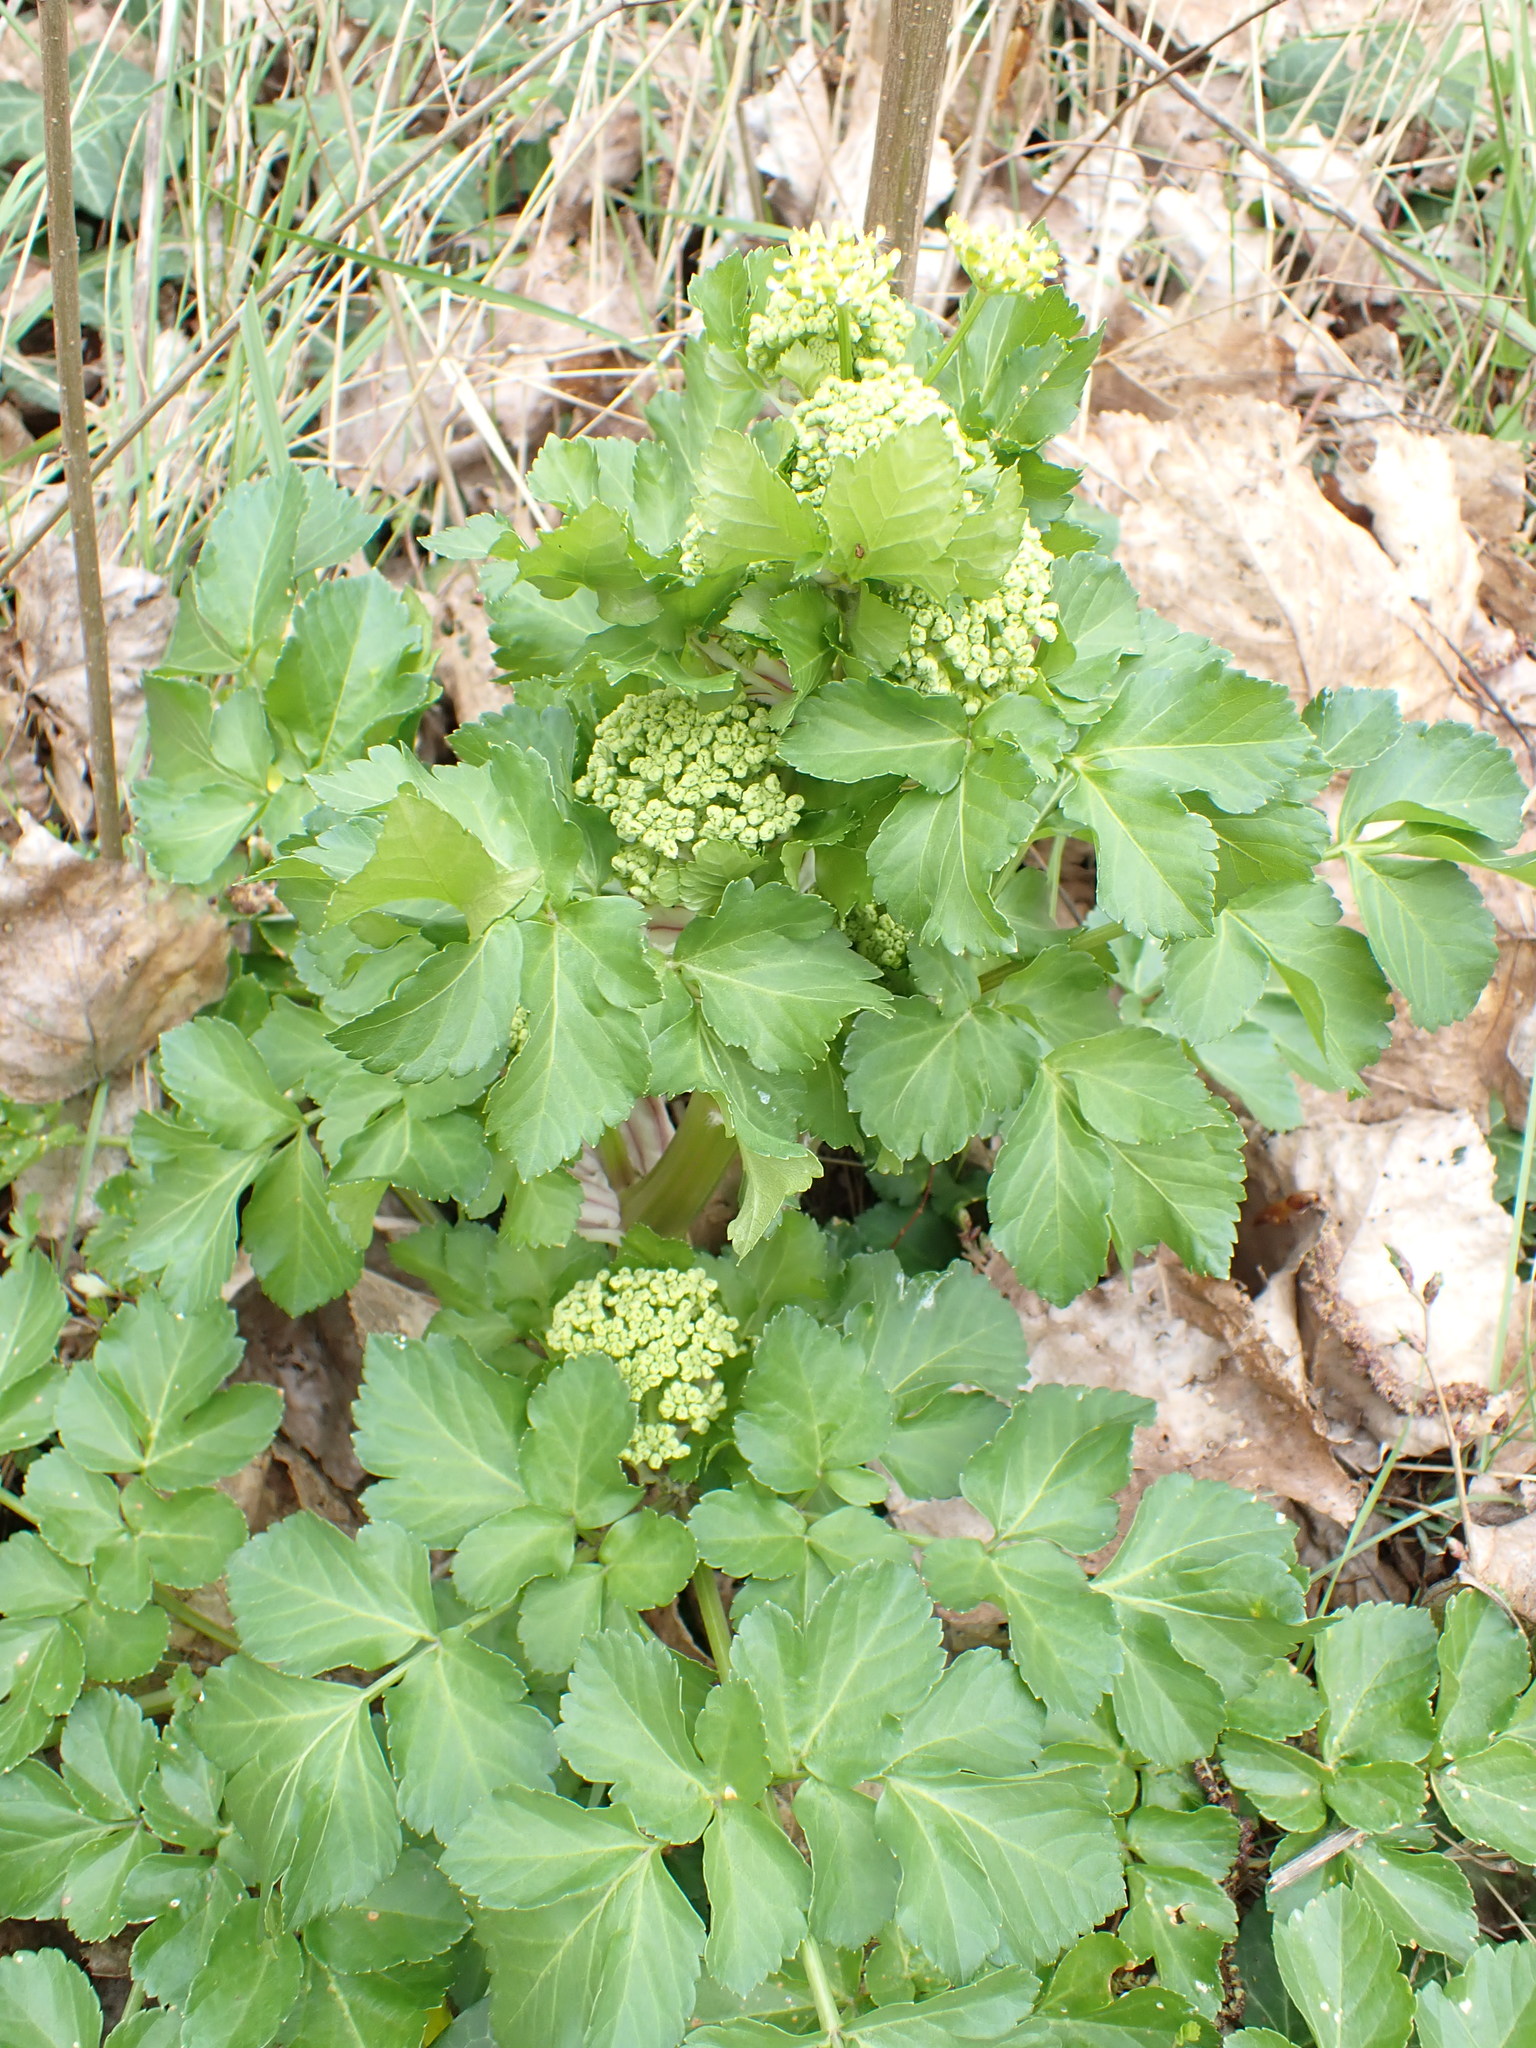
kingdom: Plantae
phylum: Tracheophyta
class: Magnoliopsida
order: Apiales
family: Apiaceae
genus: Smyrnium
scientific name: Smyrnium olusatrum
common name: Alexanders
